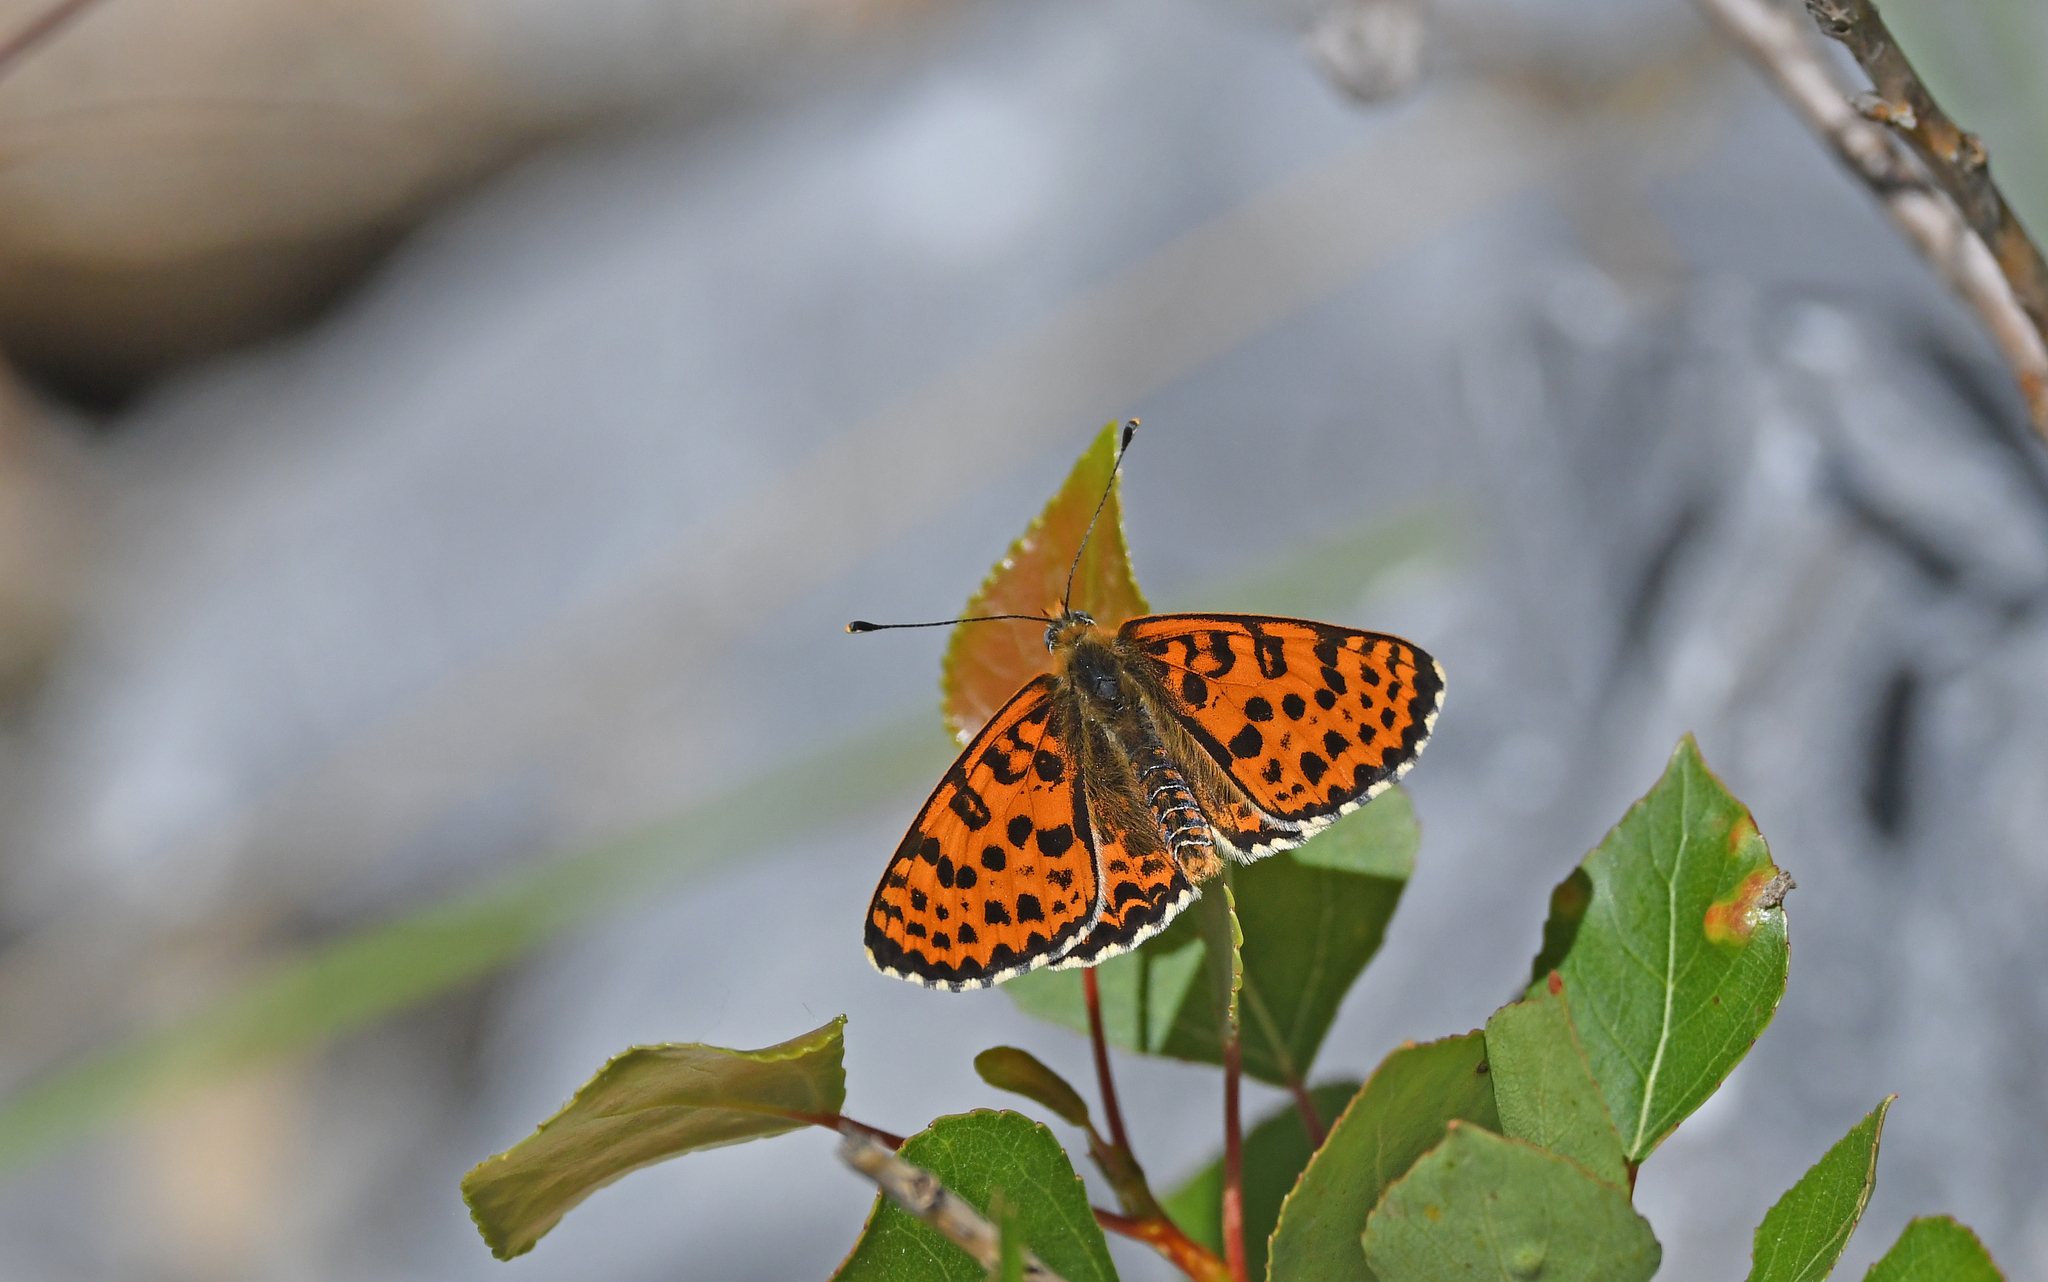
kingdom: Animalia
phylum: Arthropoda
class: Insecta
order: Lepidoptera
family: Nymphalidae
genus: Melitaea
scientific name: Melitaea didyma
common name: Spotted fritillary
